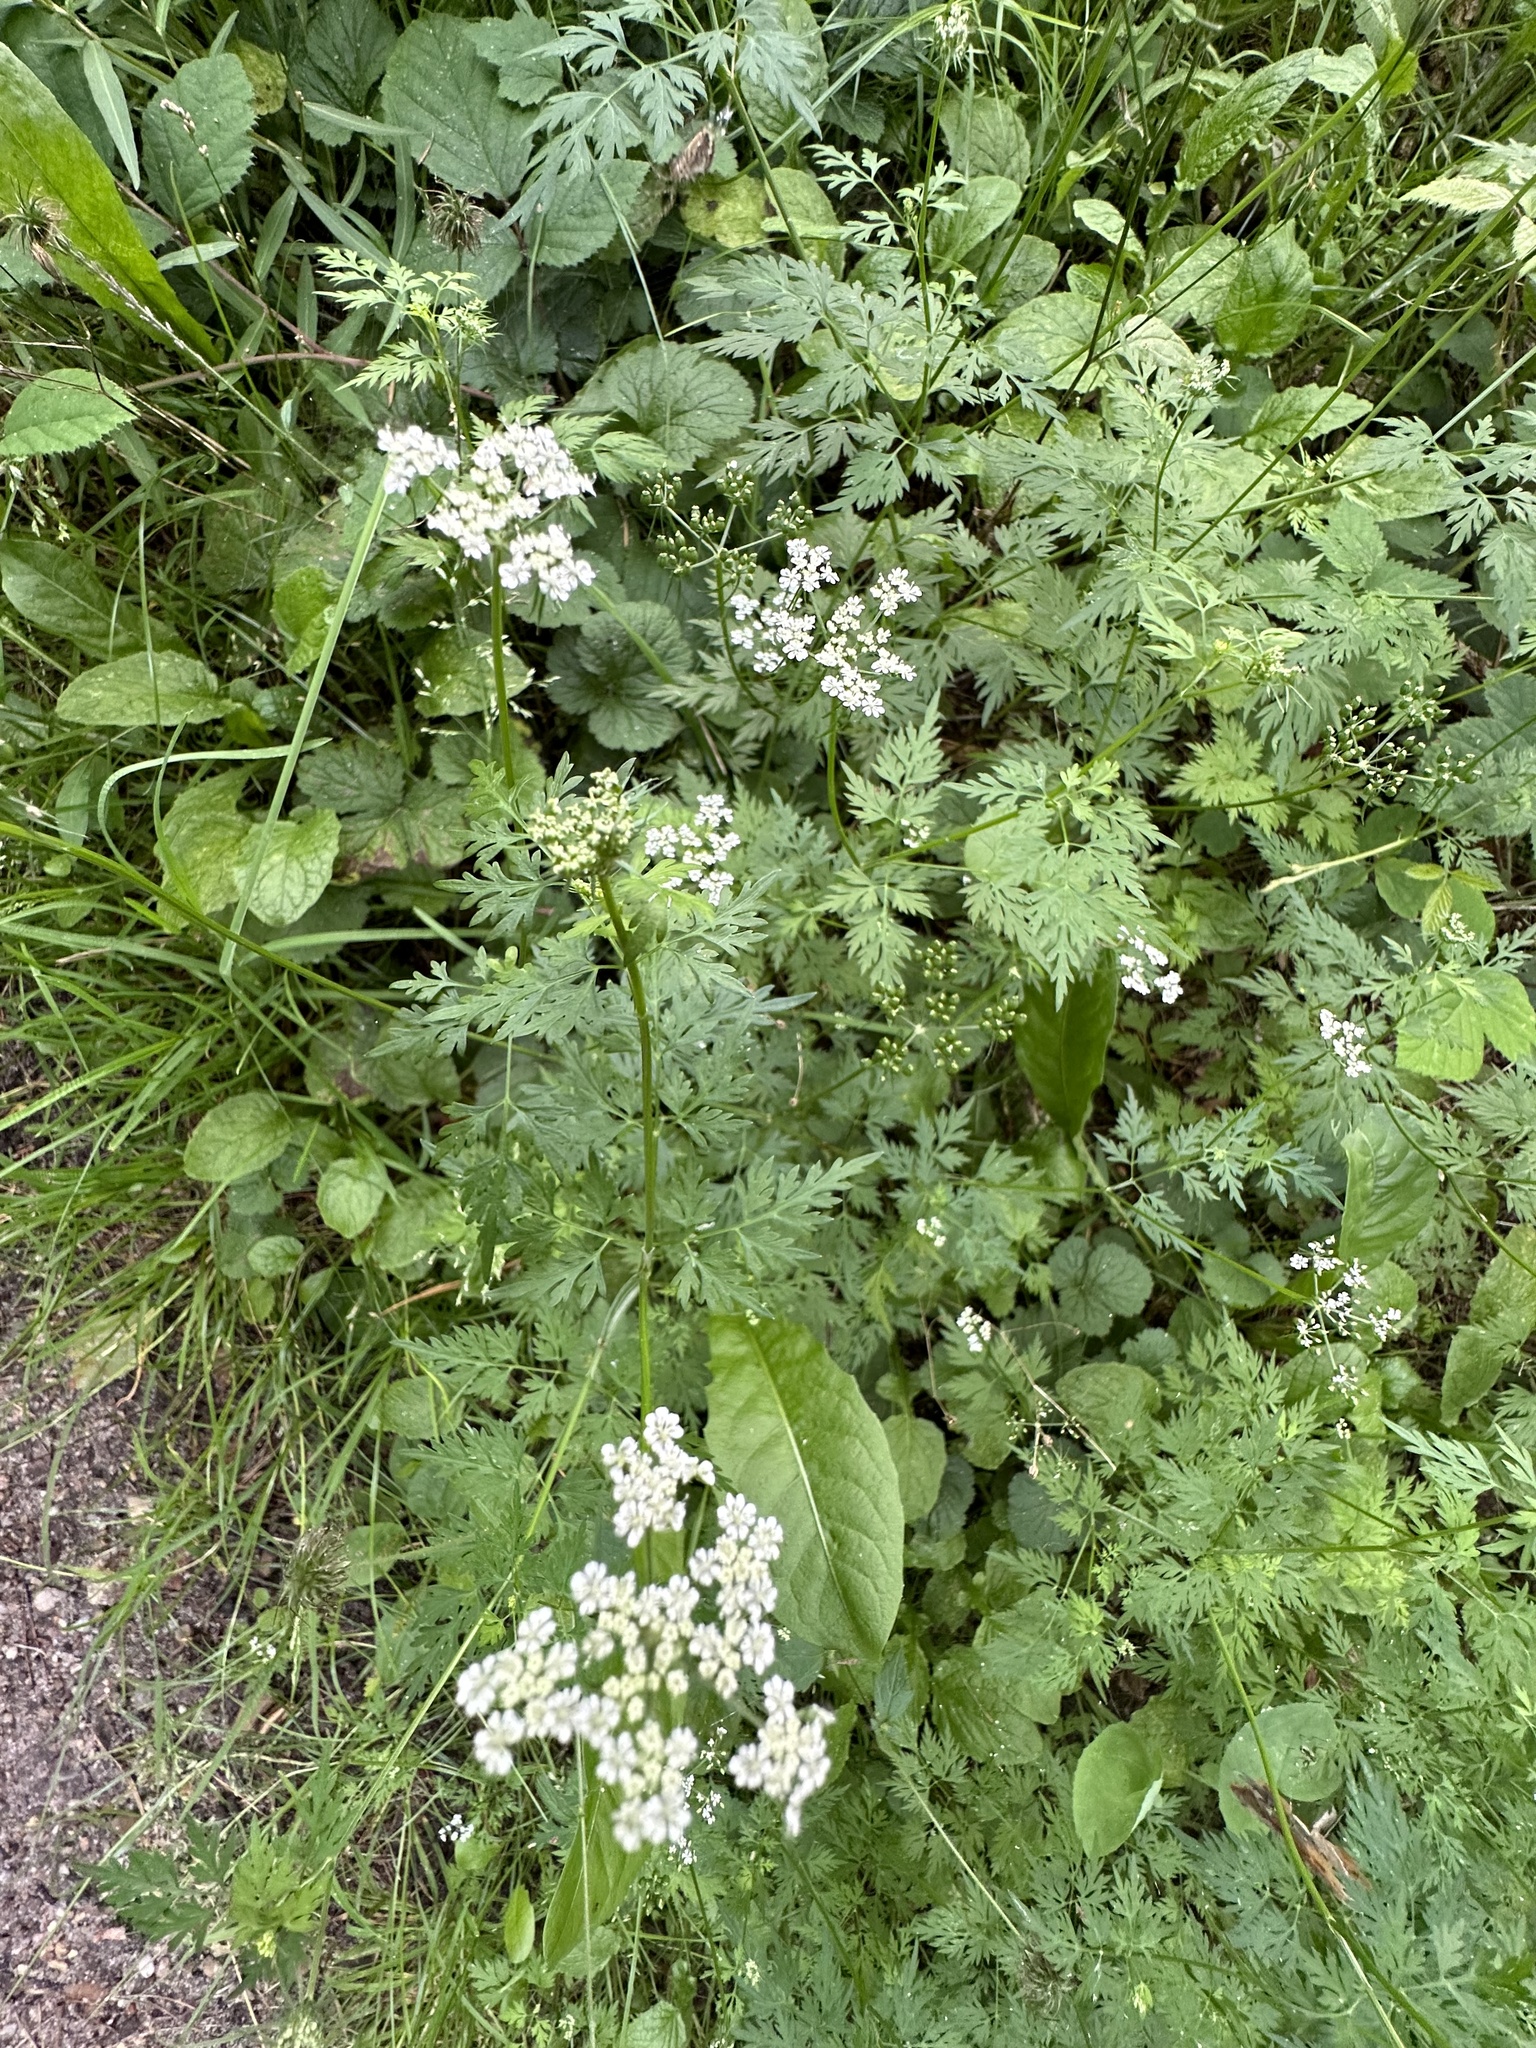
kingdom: Plantae
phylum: Tracheophyta
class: Magnoliopsida
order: Apiales
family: Apiaceae
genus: Aethusa
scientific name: Aethusa cynapium
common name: Fool's parsley
